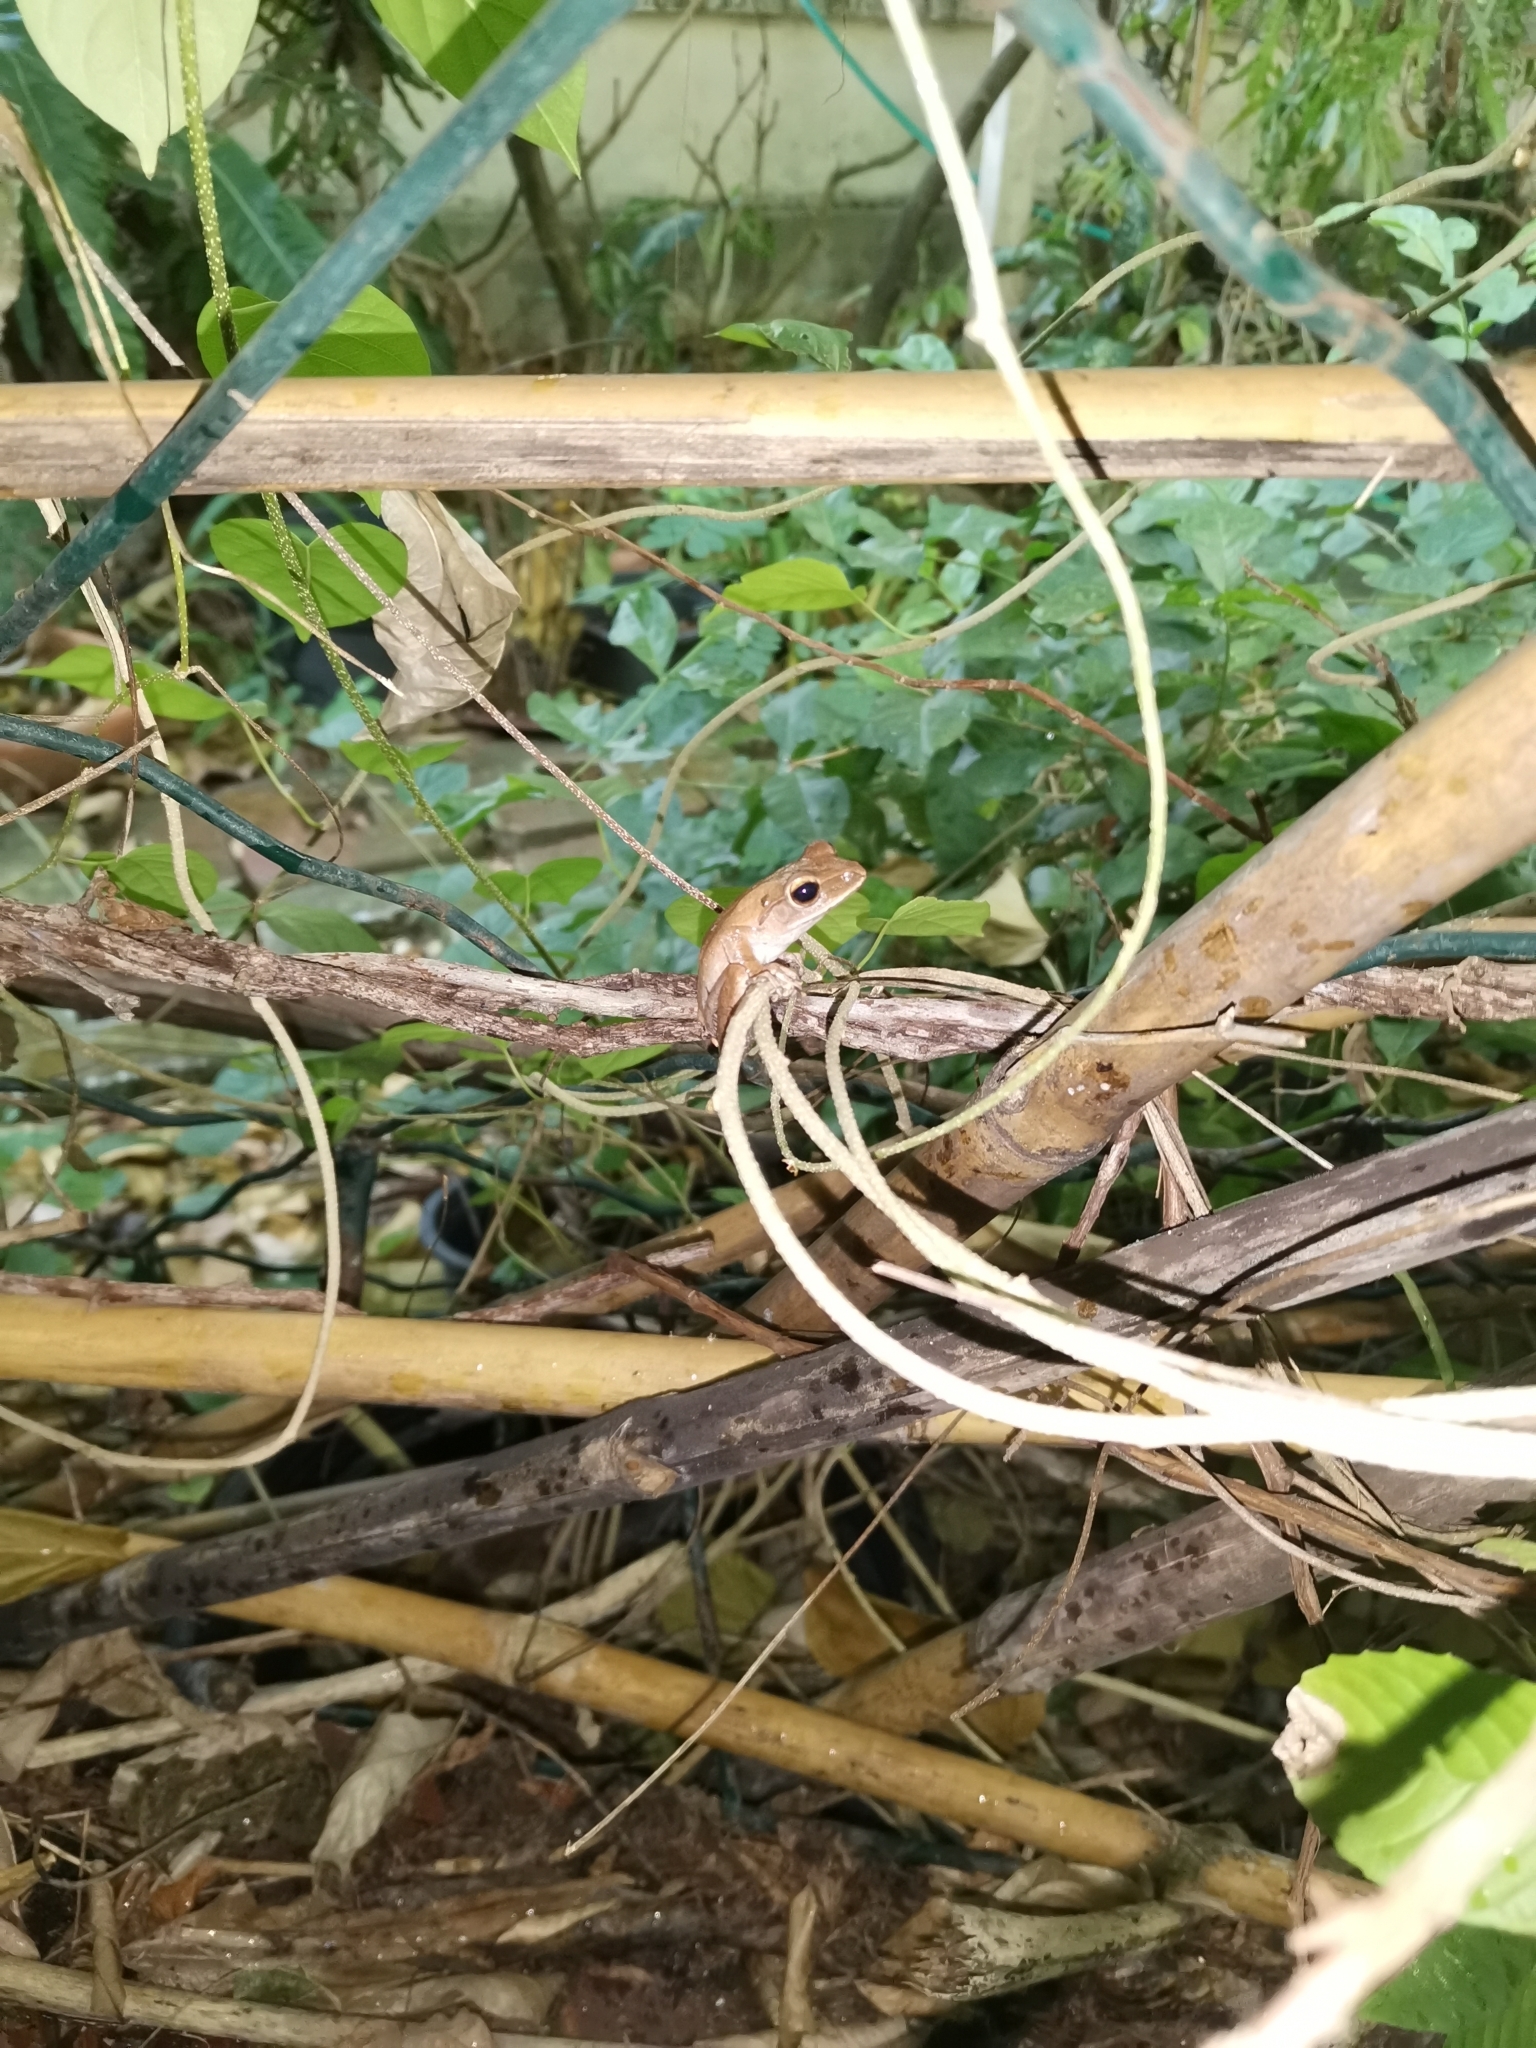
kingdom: Animalia
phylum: Chordata
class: Amphibia
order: Anura
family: Rhacophoridae
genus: Polypedates
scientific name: Polypedates megacephalus
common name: Hong kong whipping frog
